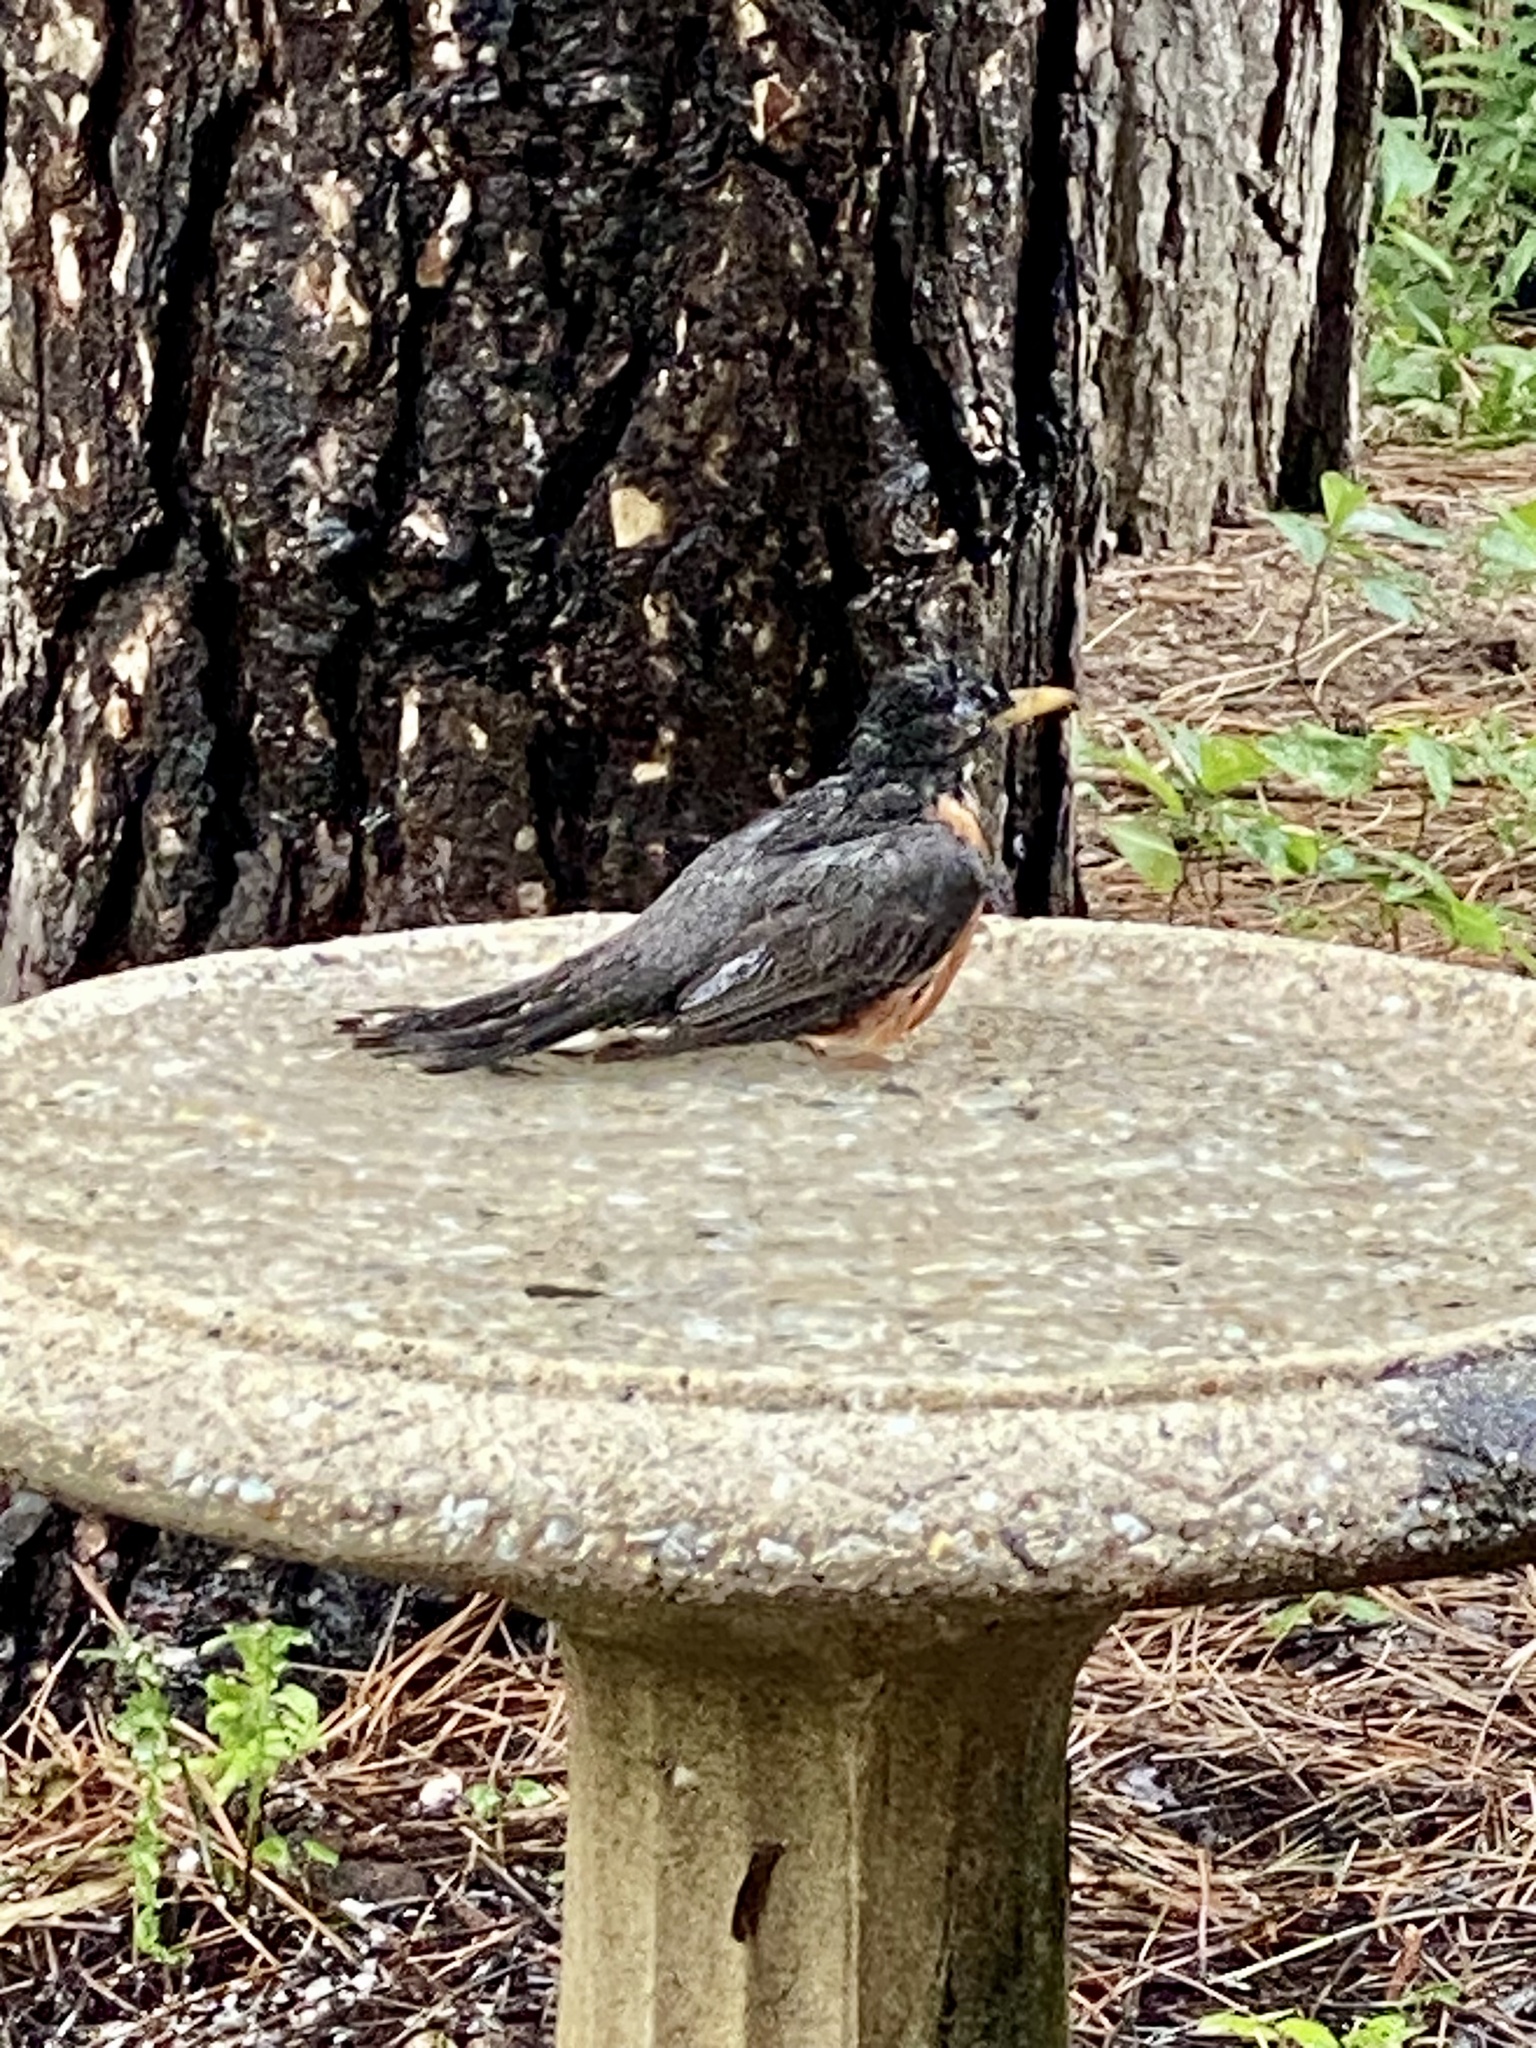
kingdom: Animalia
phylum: Chordata
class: Aves
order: Passeriformes
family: Turdidae
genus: Turdus
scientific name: Turdus migratorius
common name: American robin
